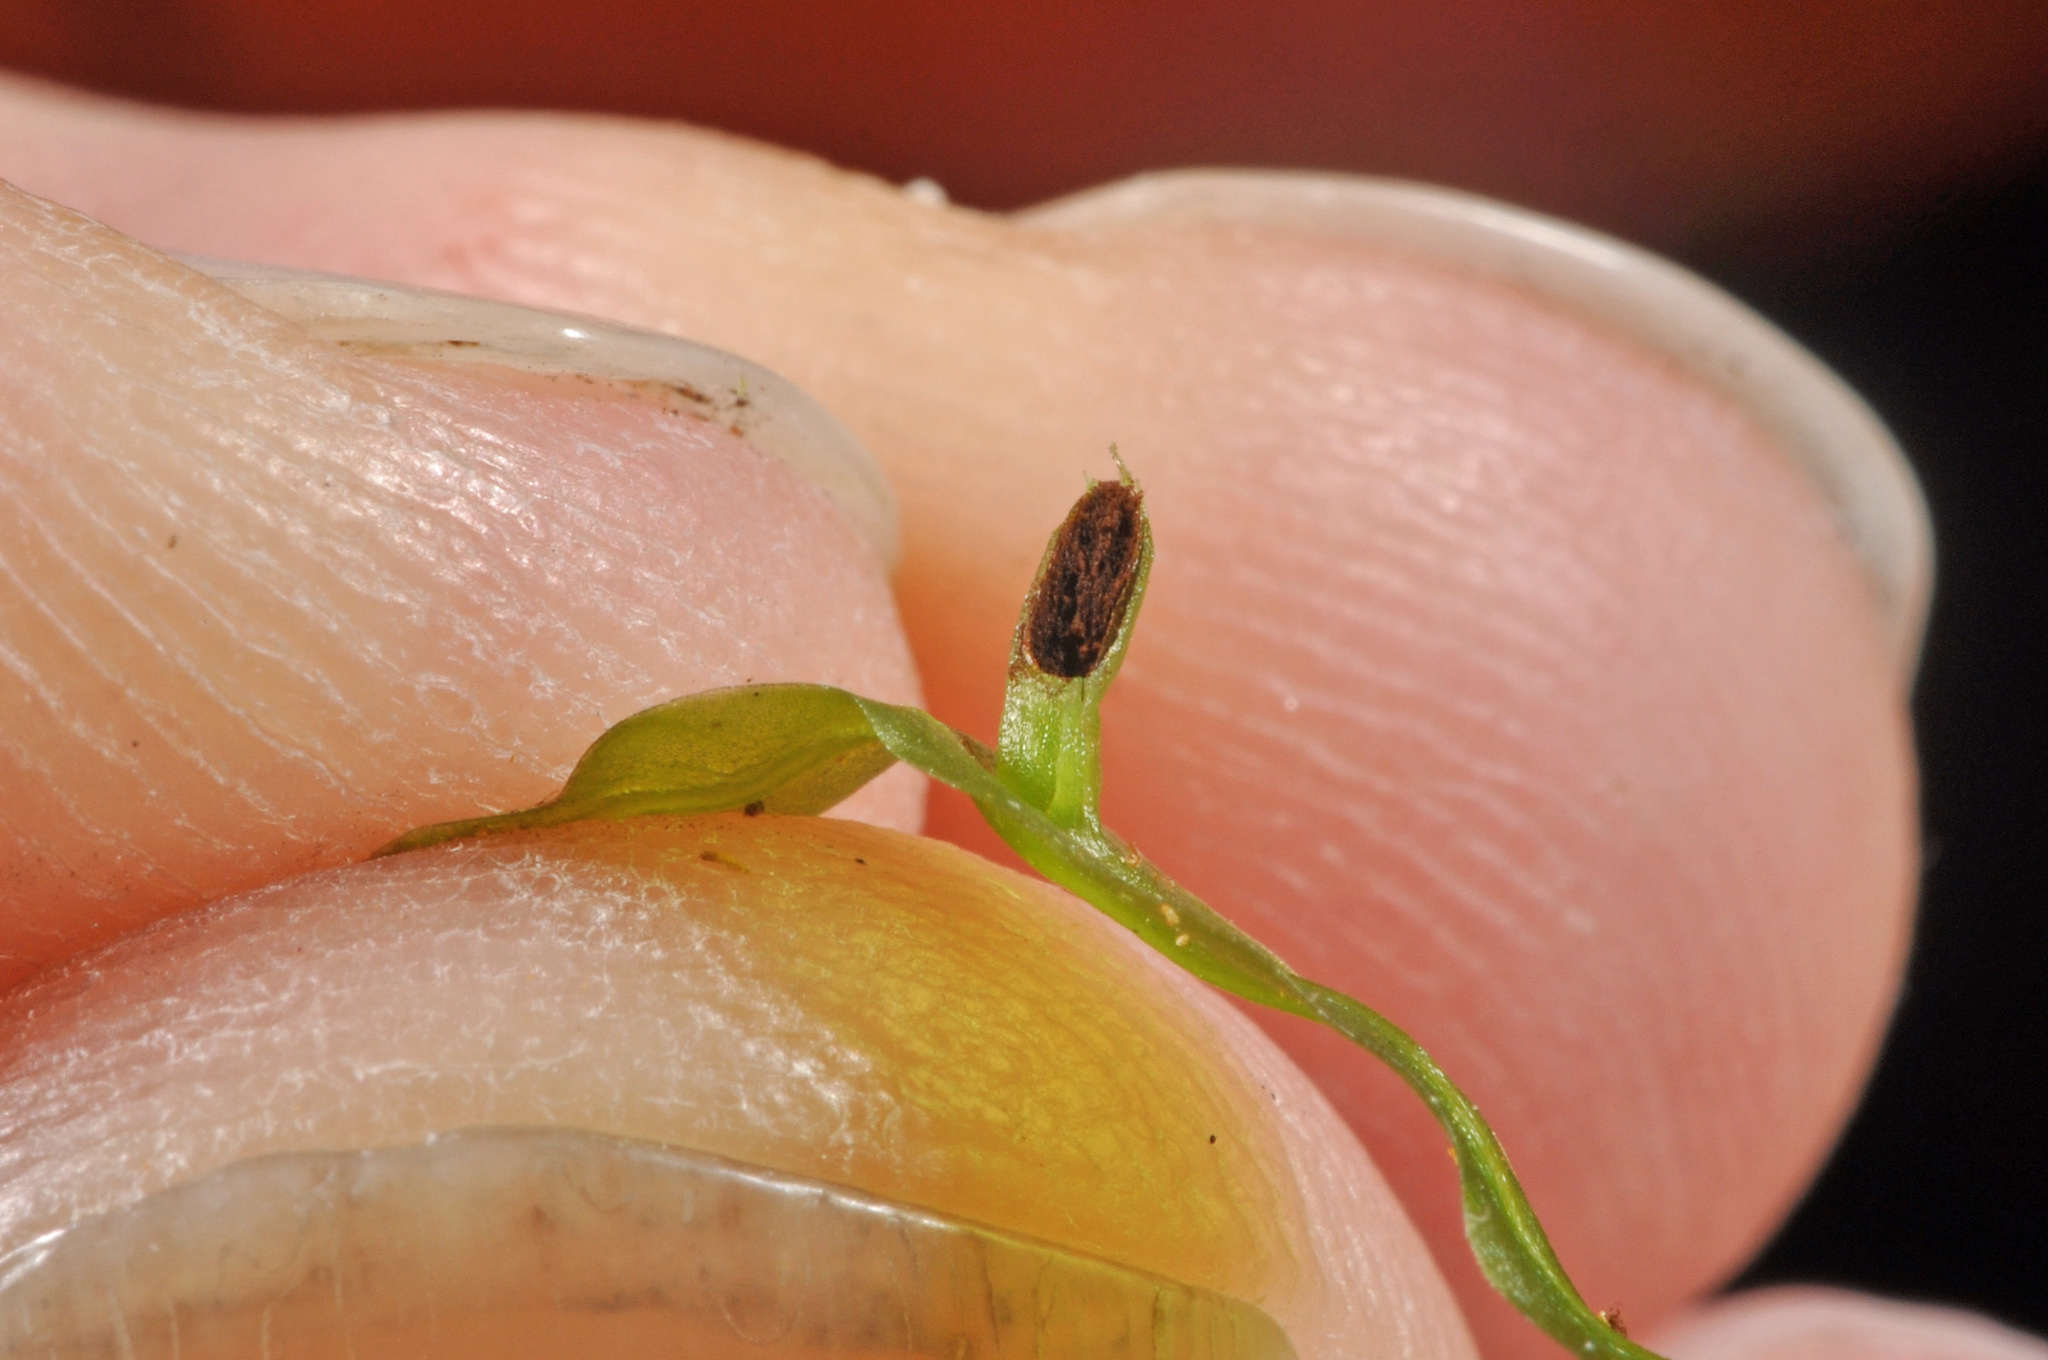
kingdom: Plantae
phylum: Marchantiophyta
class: Jungermanniopsida
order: Pallaviciniales
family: Pallaviciniaceae
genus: Symphyogyna
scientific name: Symphyogyna subsimplex
